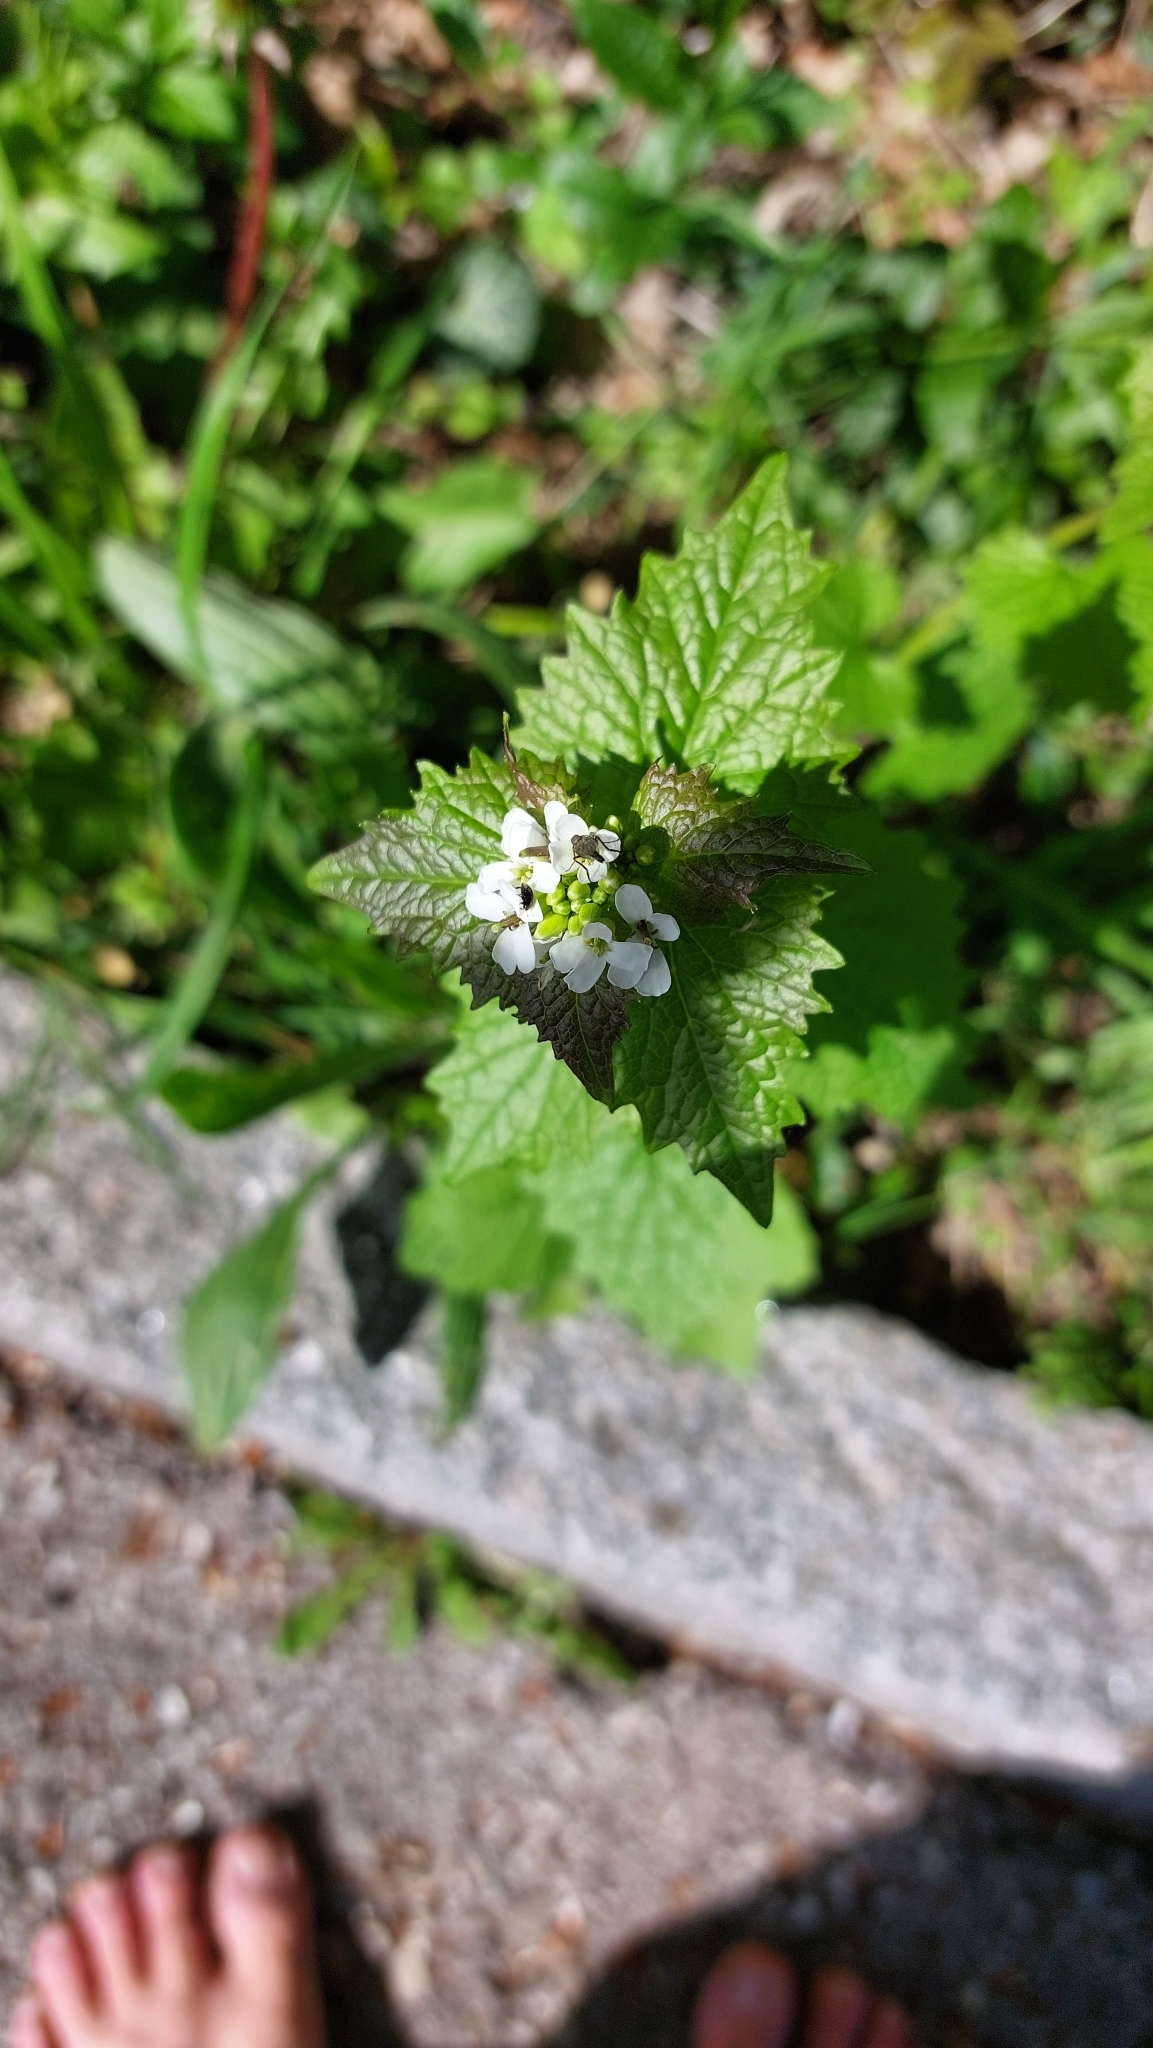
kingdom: Plantae
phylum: Tracheophyta
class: Magnoliopsida
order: Brassicales
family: Brassicaceae
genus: Alliaria
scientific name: Alliaria petiolata
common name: Garlic mustard
